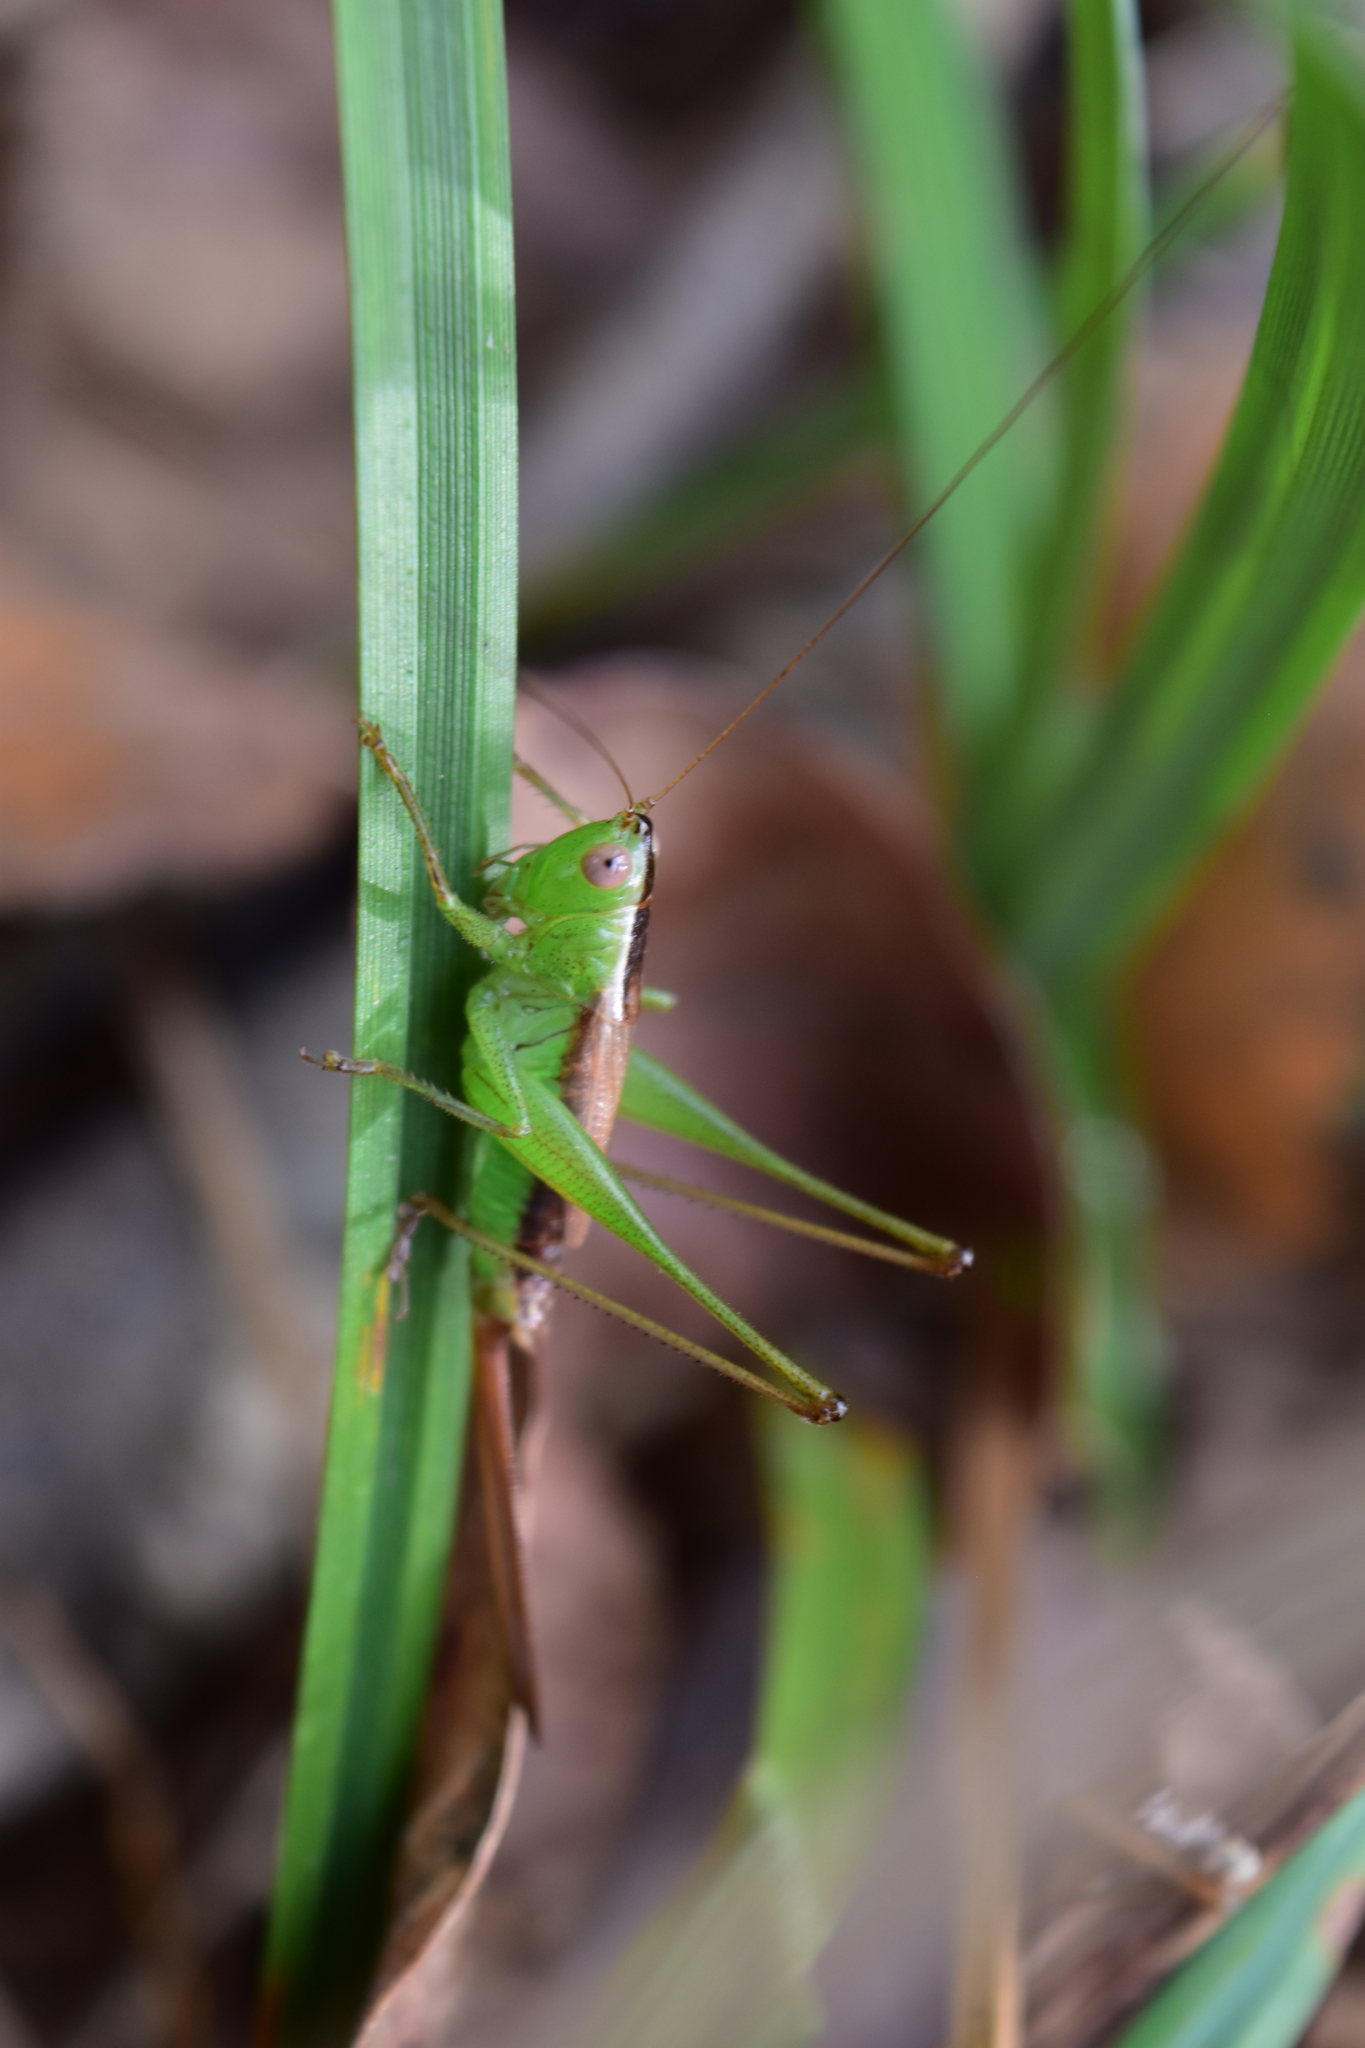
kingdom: Animalia
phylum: Arthropoda
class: Insecta
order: Orthoptera
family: Tettigoniidae
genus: Conocephalus
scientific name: Conocephalus brevipennis
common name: Short-winged meadow katydid
